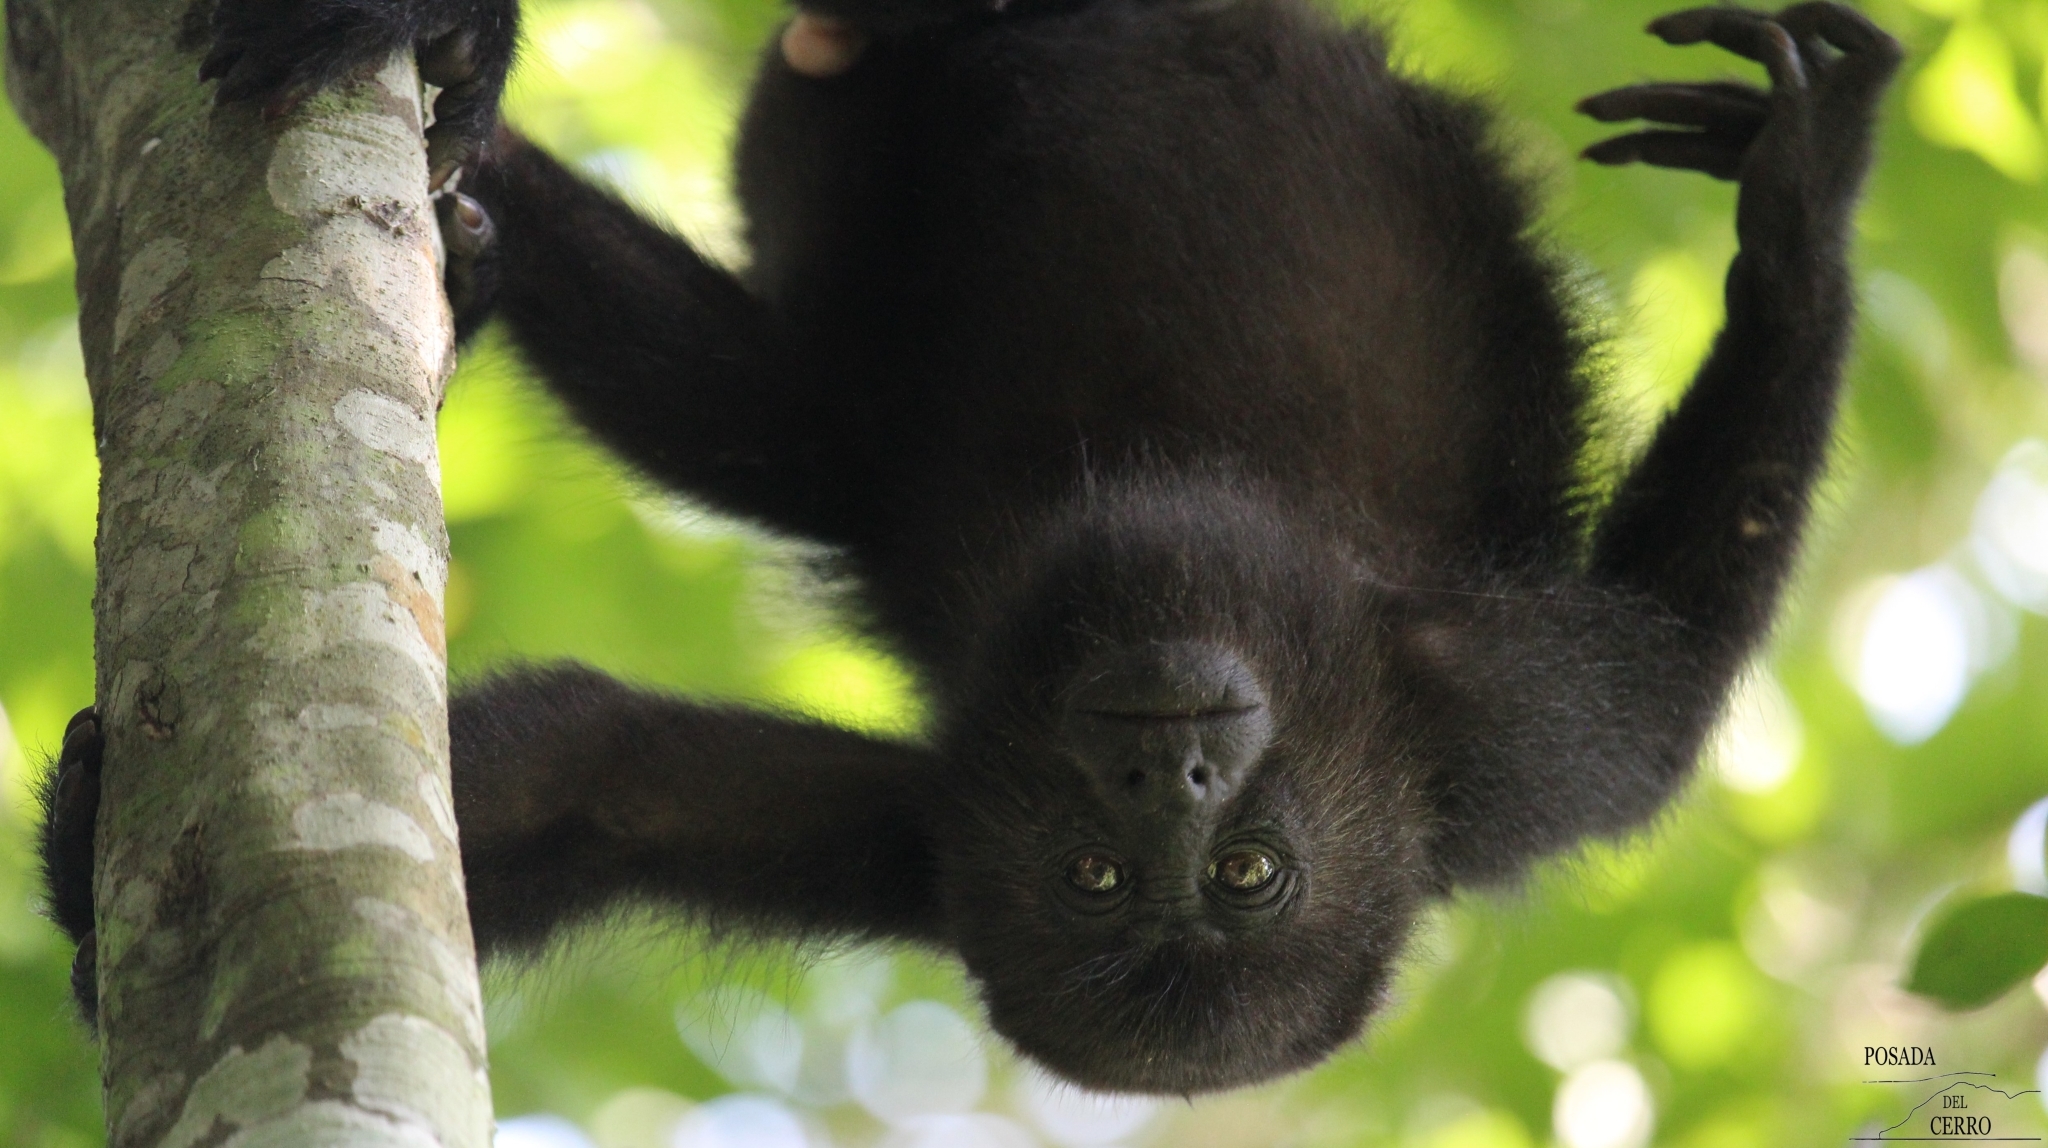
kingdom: Animalia
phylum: Chordata
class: Mammalia
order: Primates
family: Atelidae
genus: Alouatta
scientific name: Alouatta pigra
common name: Guatemalan black howler
